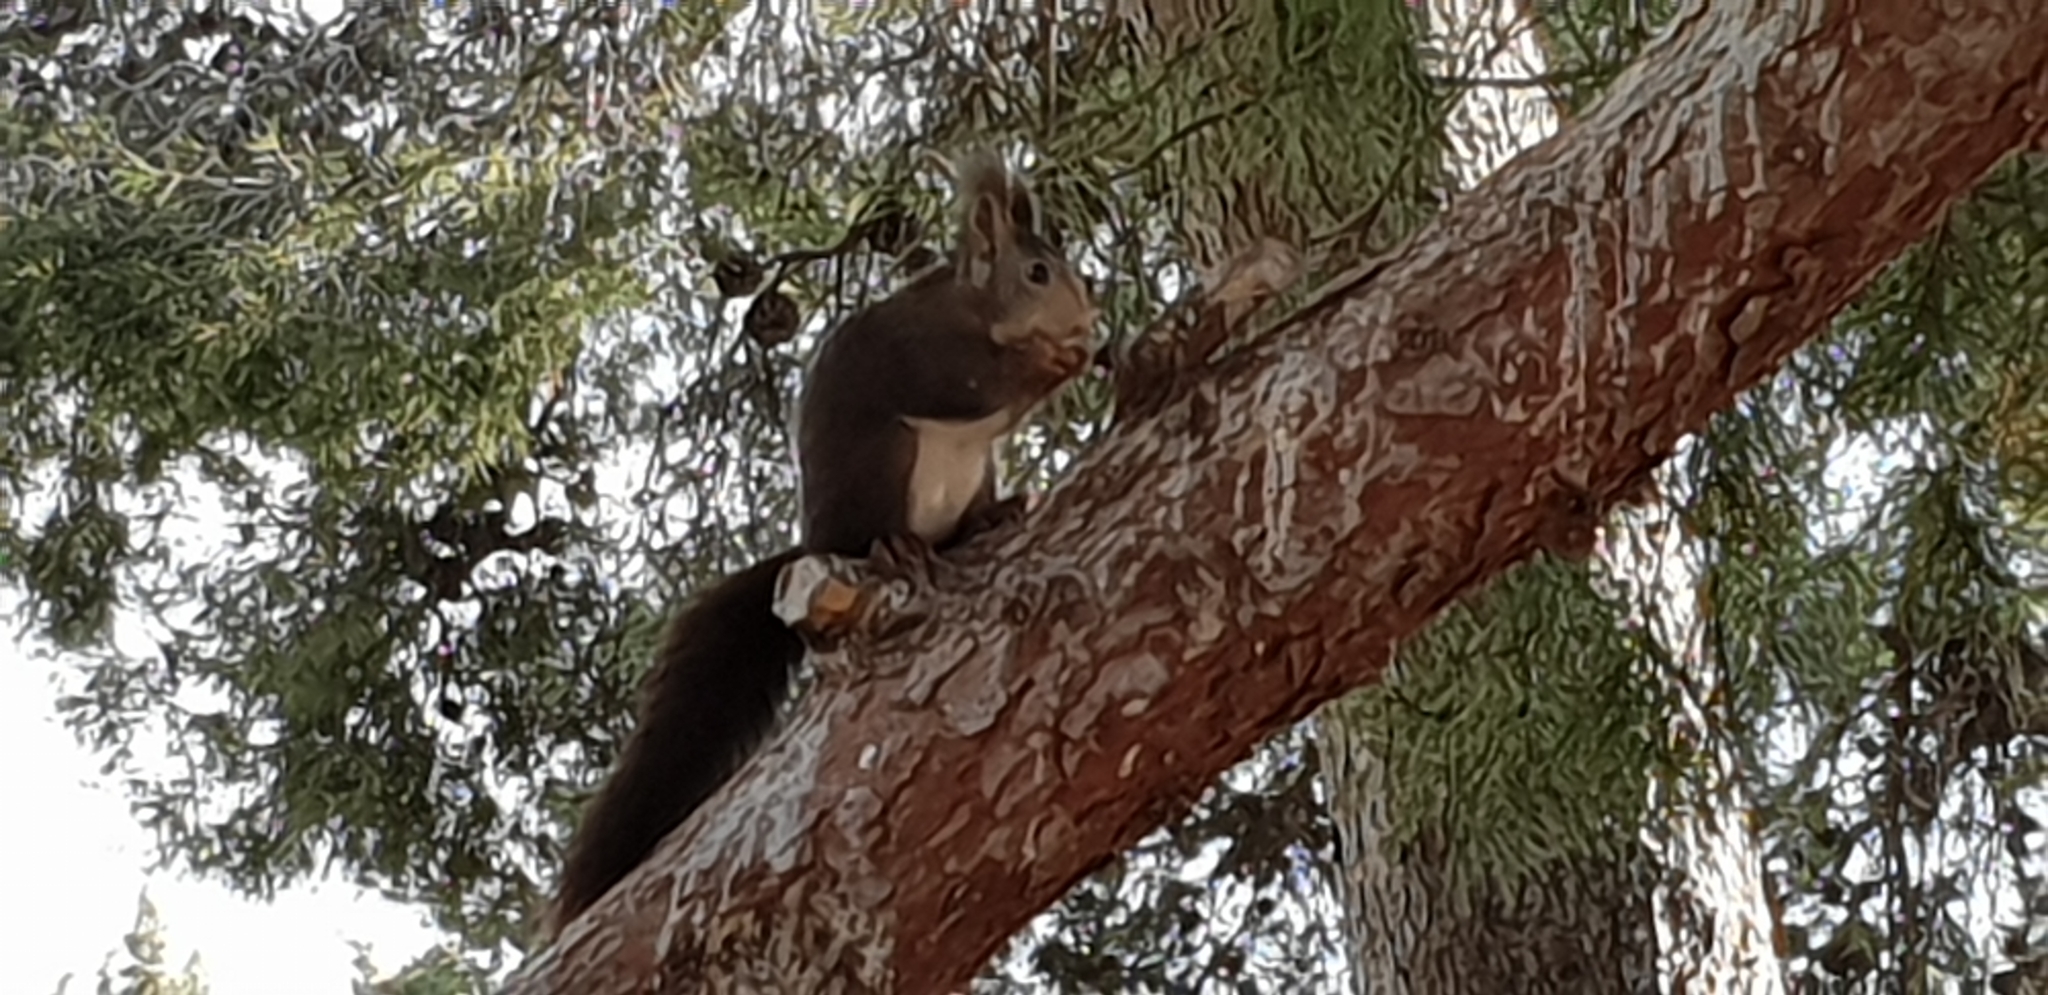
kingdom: Animalia
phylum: Chordata
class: Mammalia
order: Rodentia
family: Sciuridae
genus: Sciurus
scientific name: Sciurus vulgaris
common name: Eurasian red squirrel
